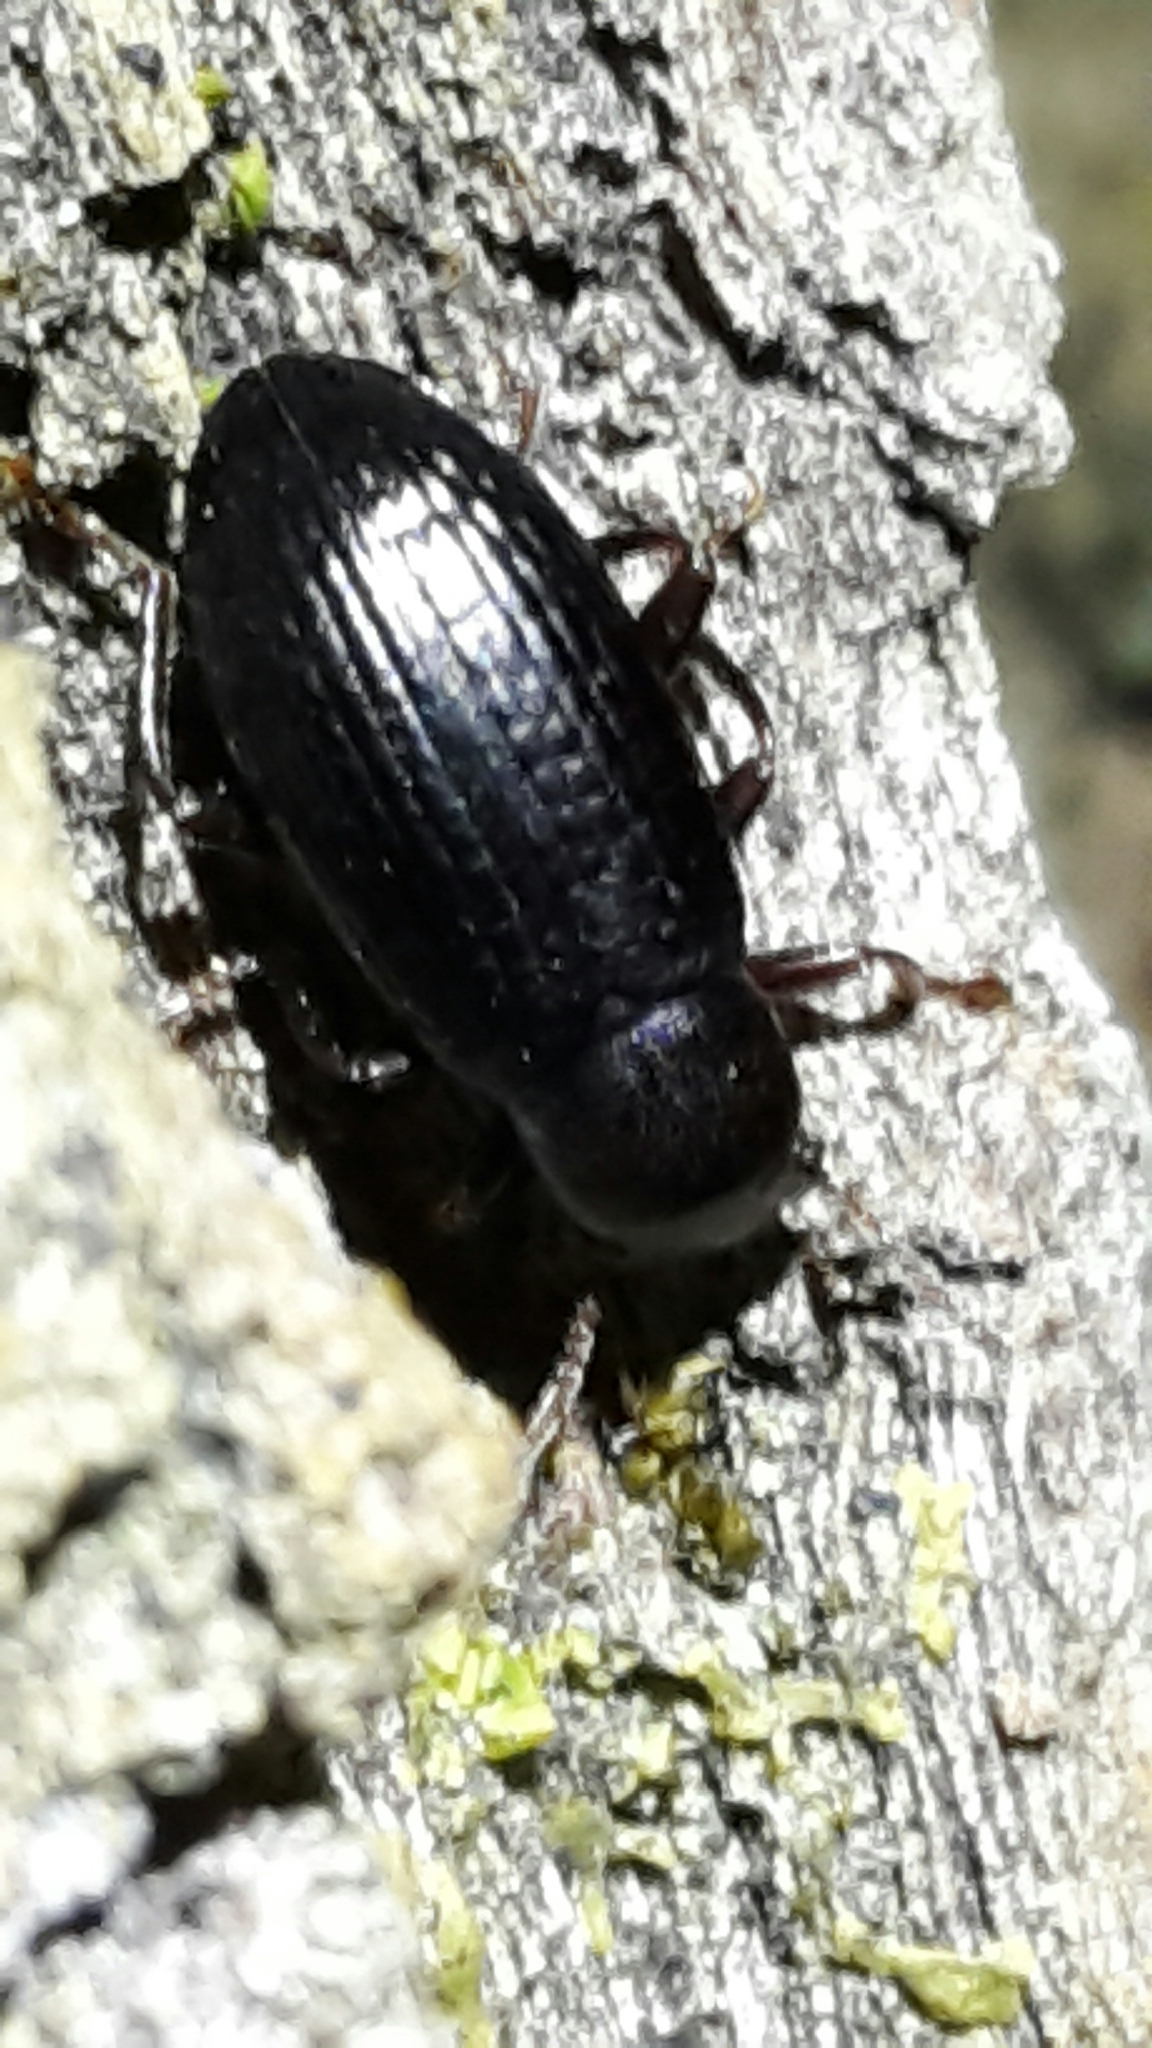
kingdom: Animalia
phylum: Arthropoda
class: Insecta
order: Coleoptera
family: Tenebrionidae
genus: Artystona
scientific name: Artystona
